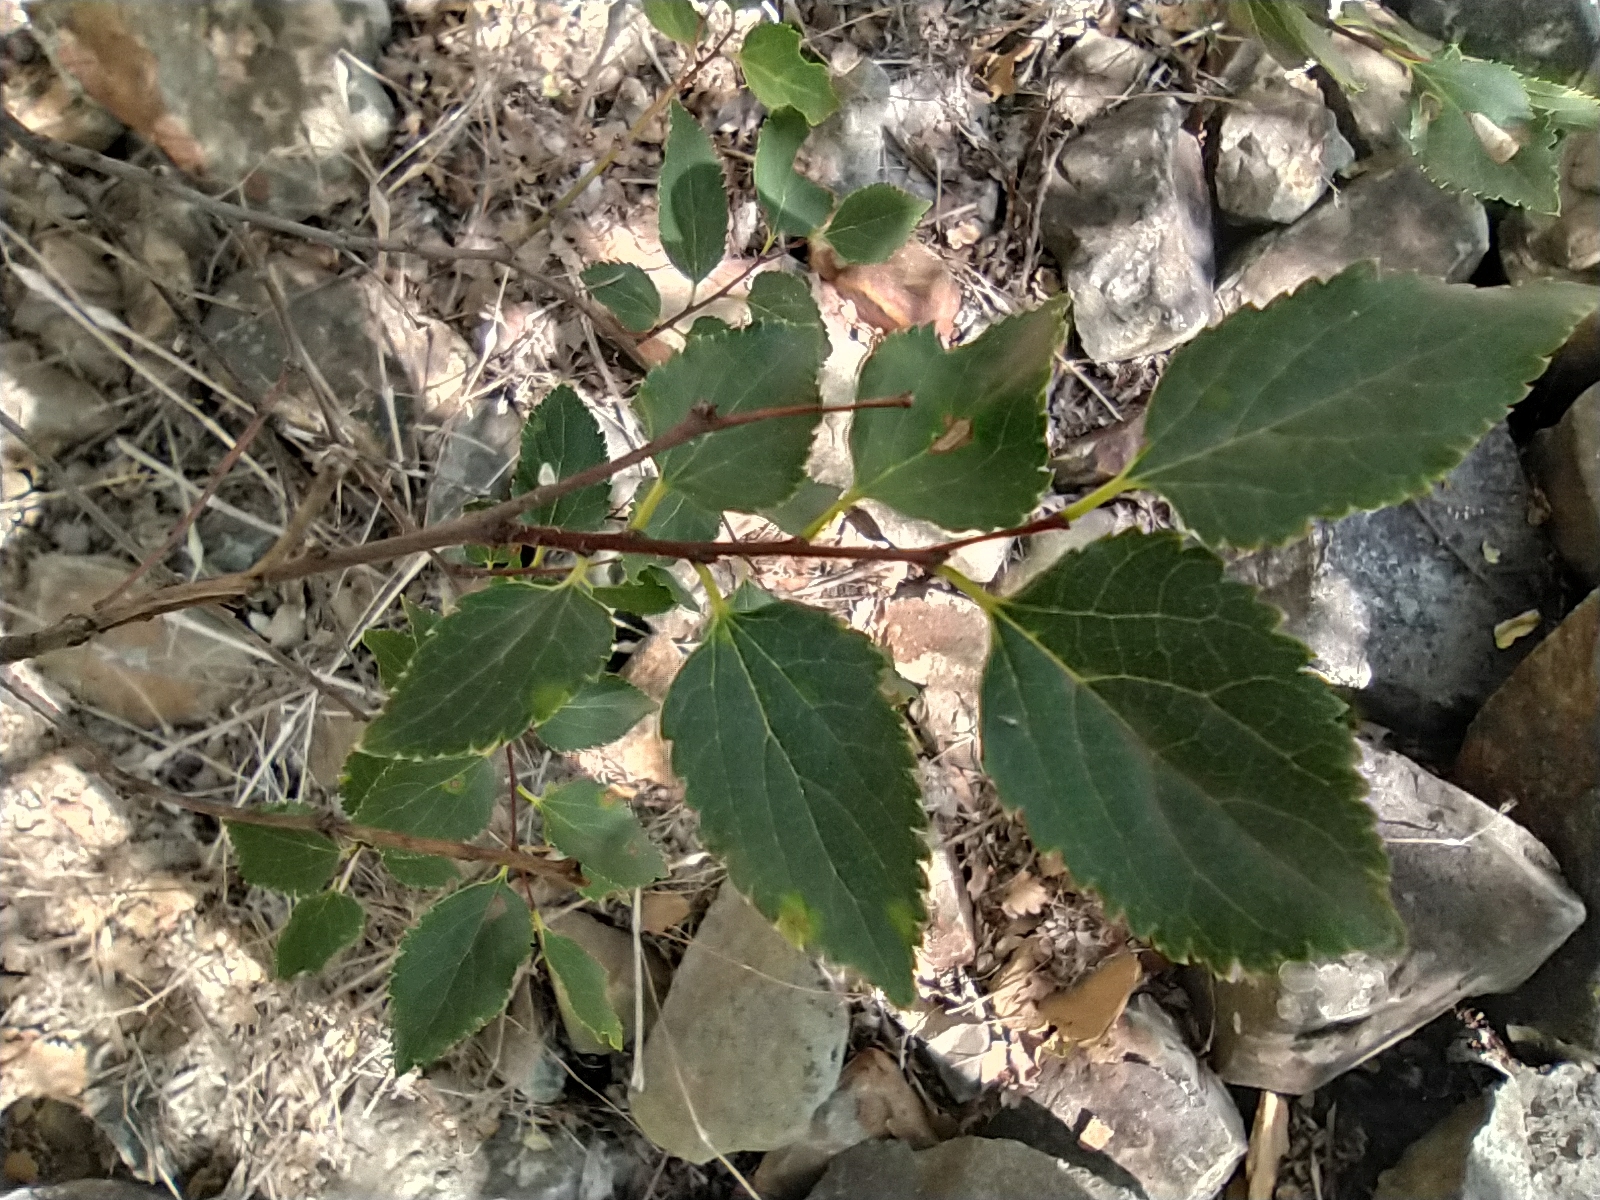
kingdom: Plantae
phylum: Tracheophyta
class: Magnoliopsida
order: Rosales
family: Cannabaceae
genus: Celtis
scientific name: Celtis glabrata
